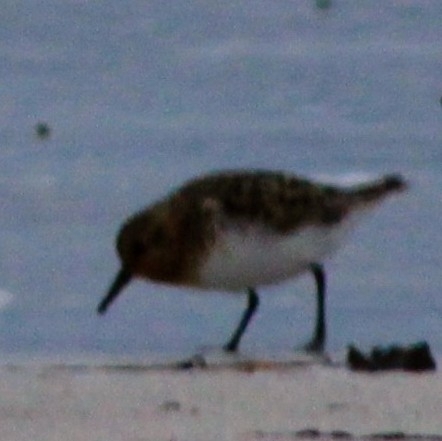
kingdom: Animalia
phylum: Chordata
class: Aves
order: Charadriiformes
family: Scolopacidae
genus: Calidris
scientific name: Calidris alba
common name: Sanderling
